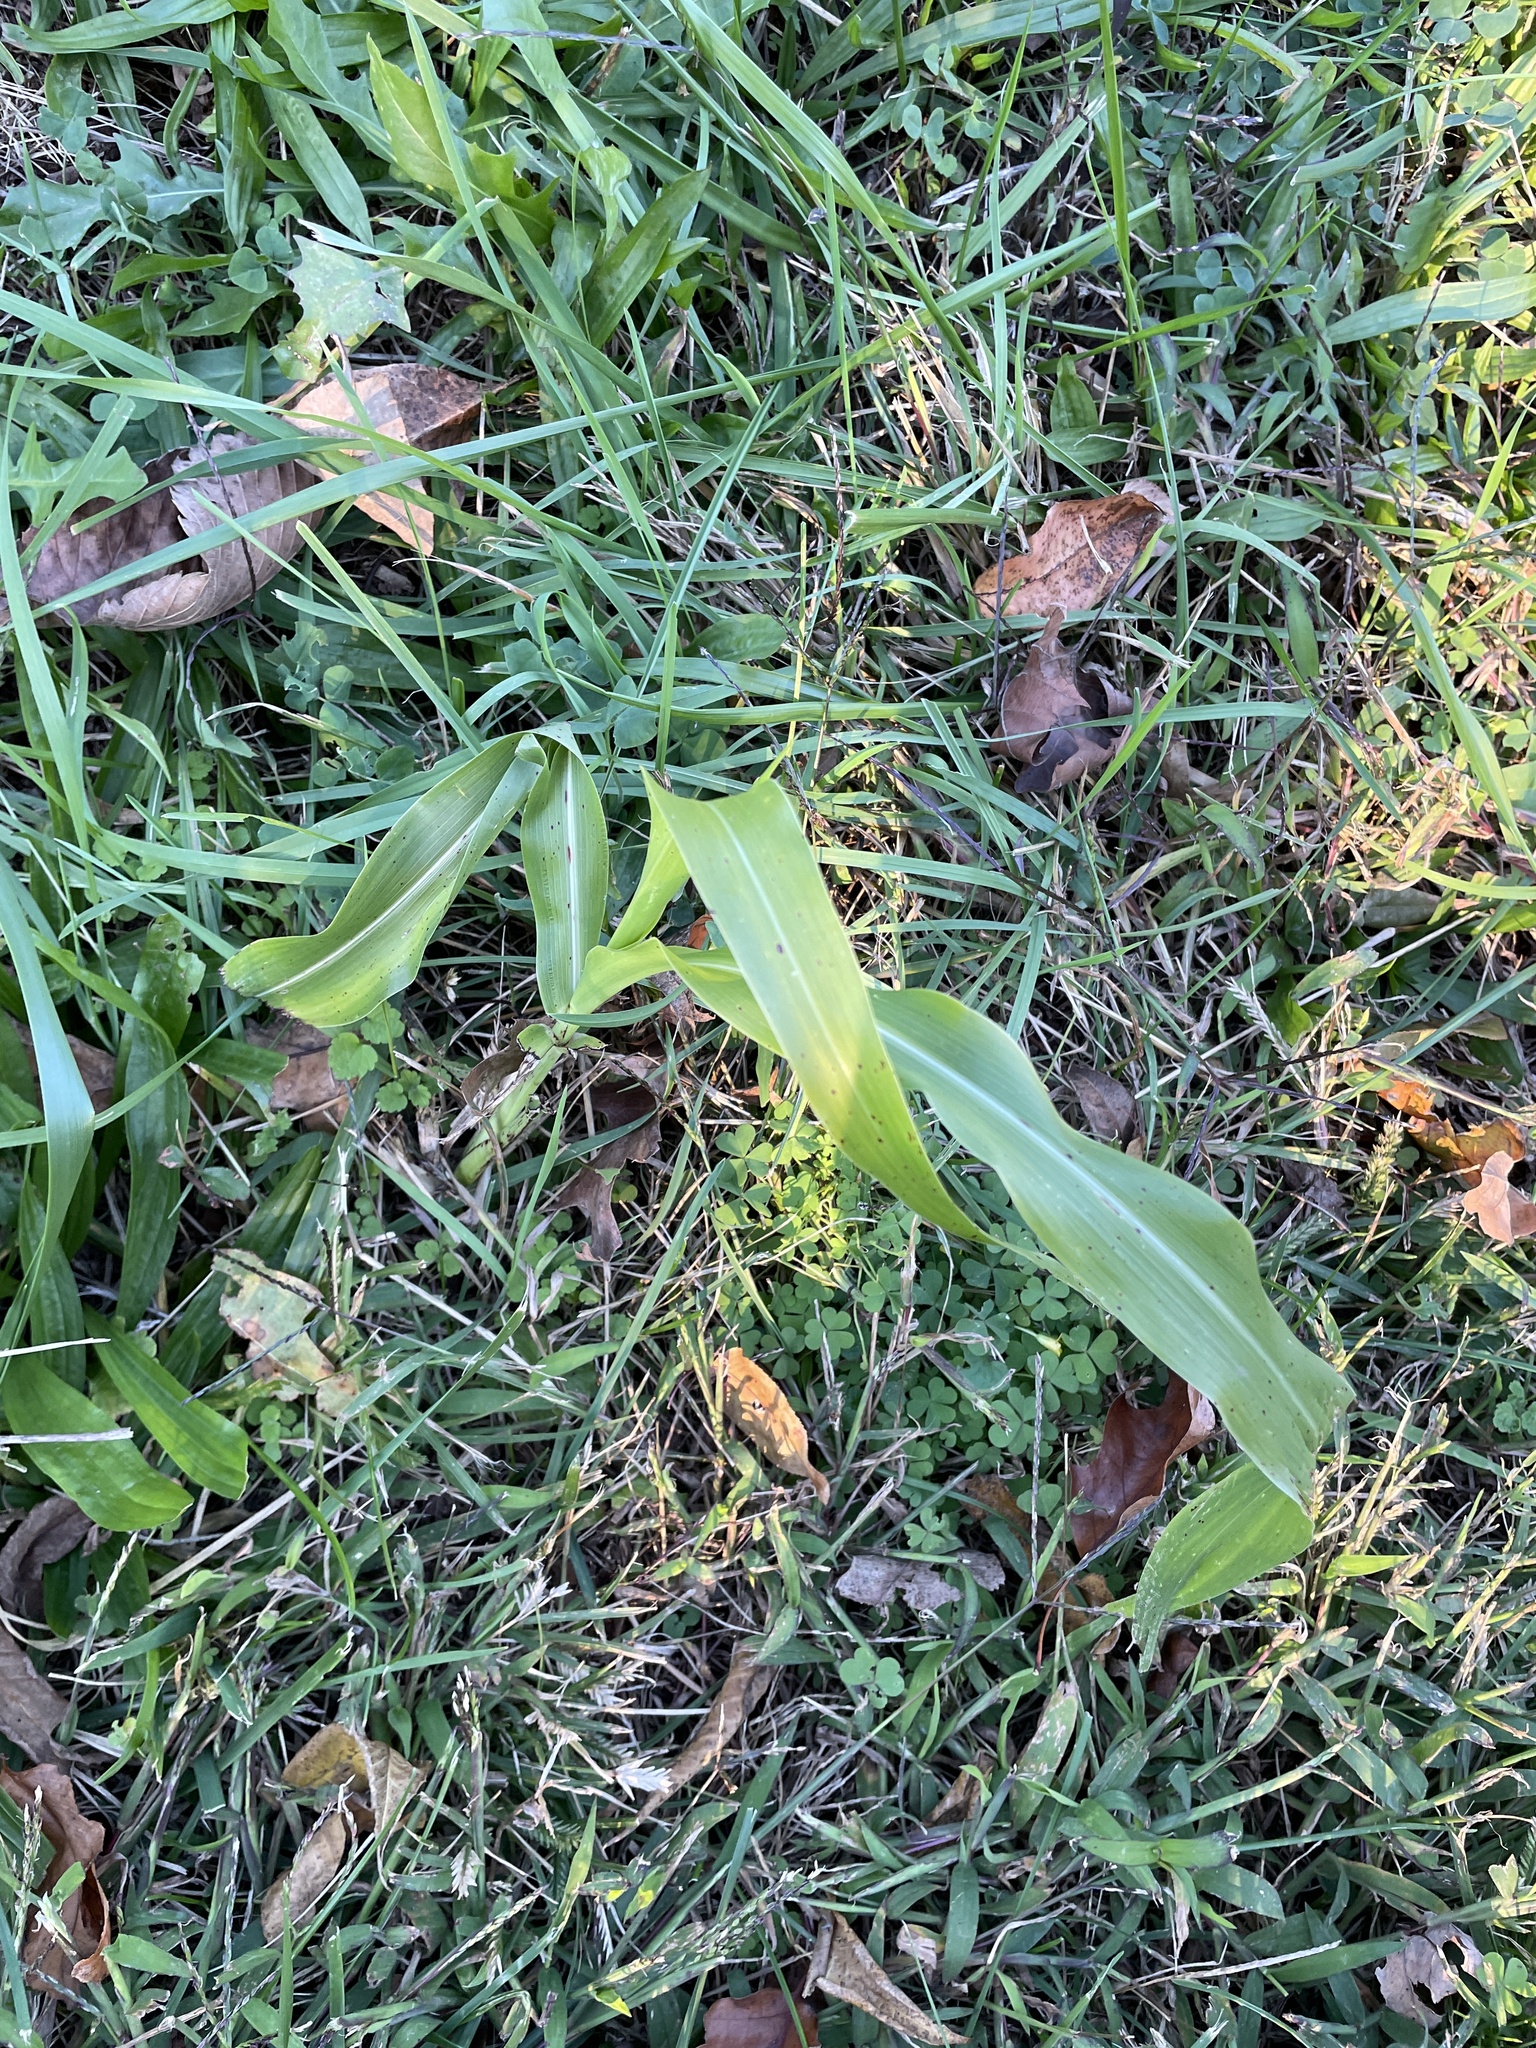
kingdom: Plantae
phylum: Tracheophyta
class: Liliopsida
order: Poales
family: Poaceae
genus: Sorghum
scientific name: Sorghum bicolor
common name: Sorghum
